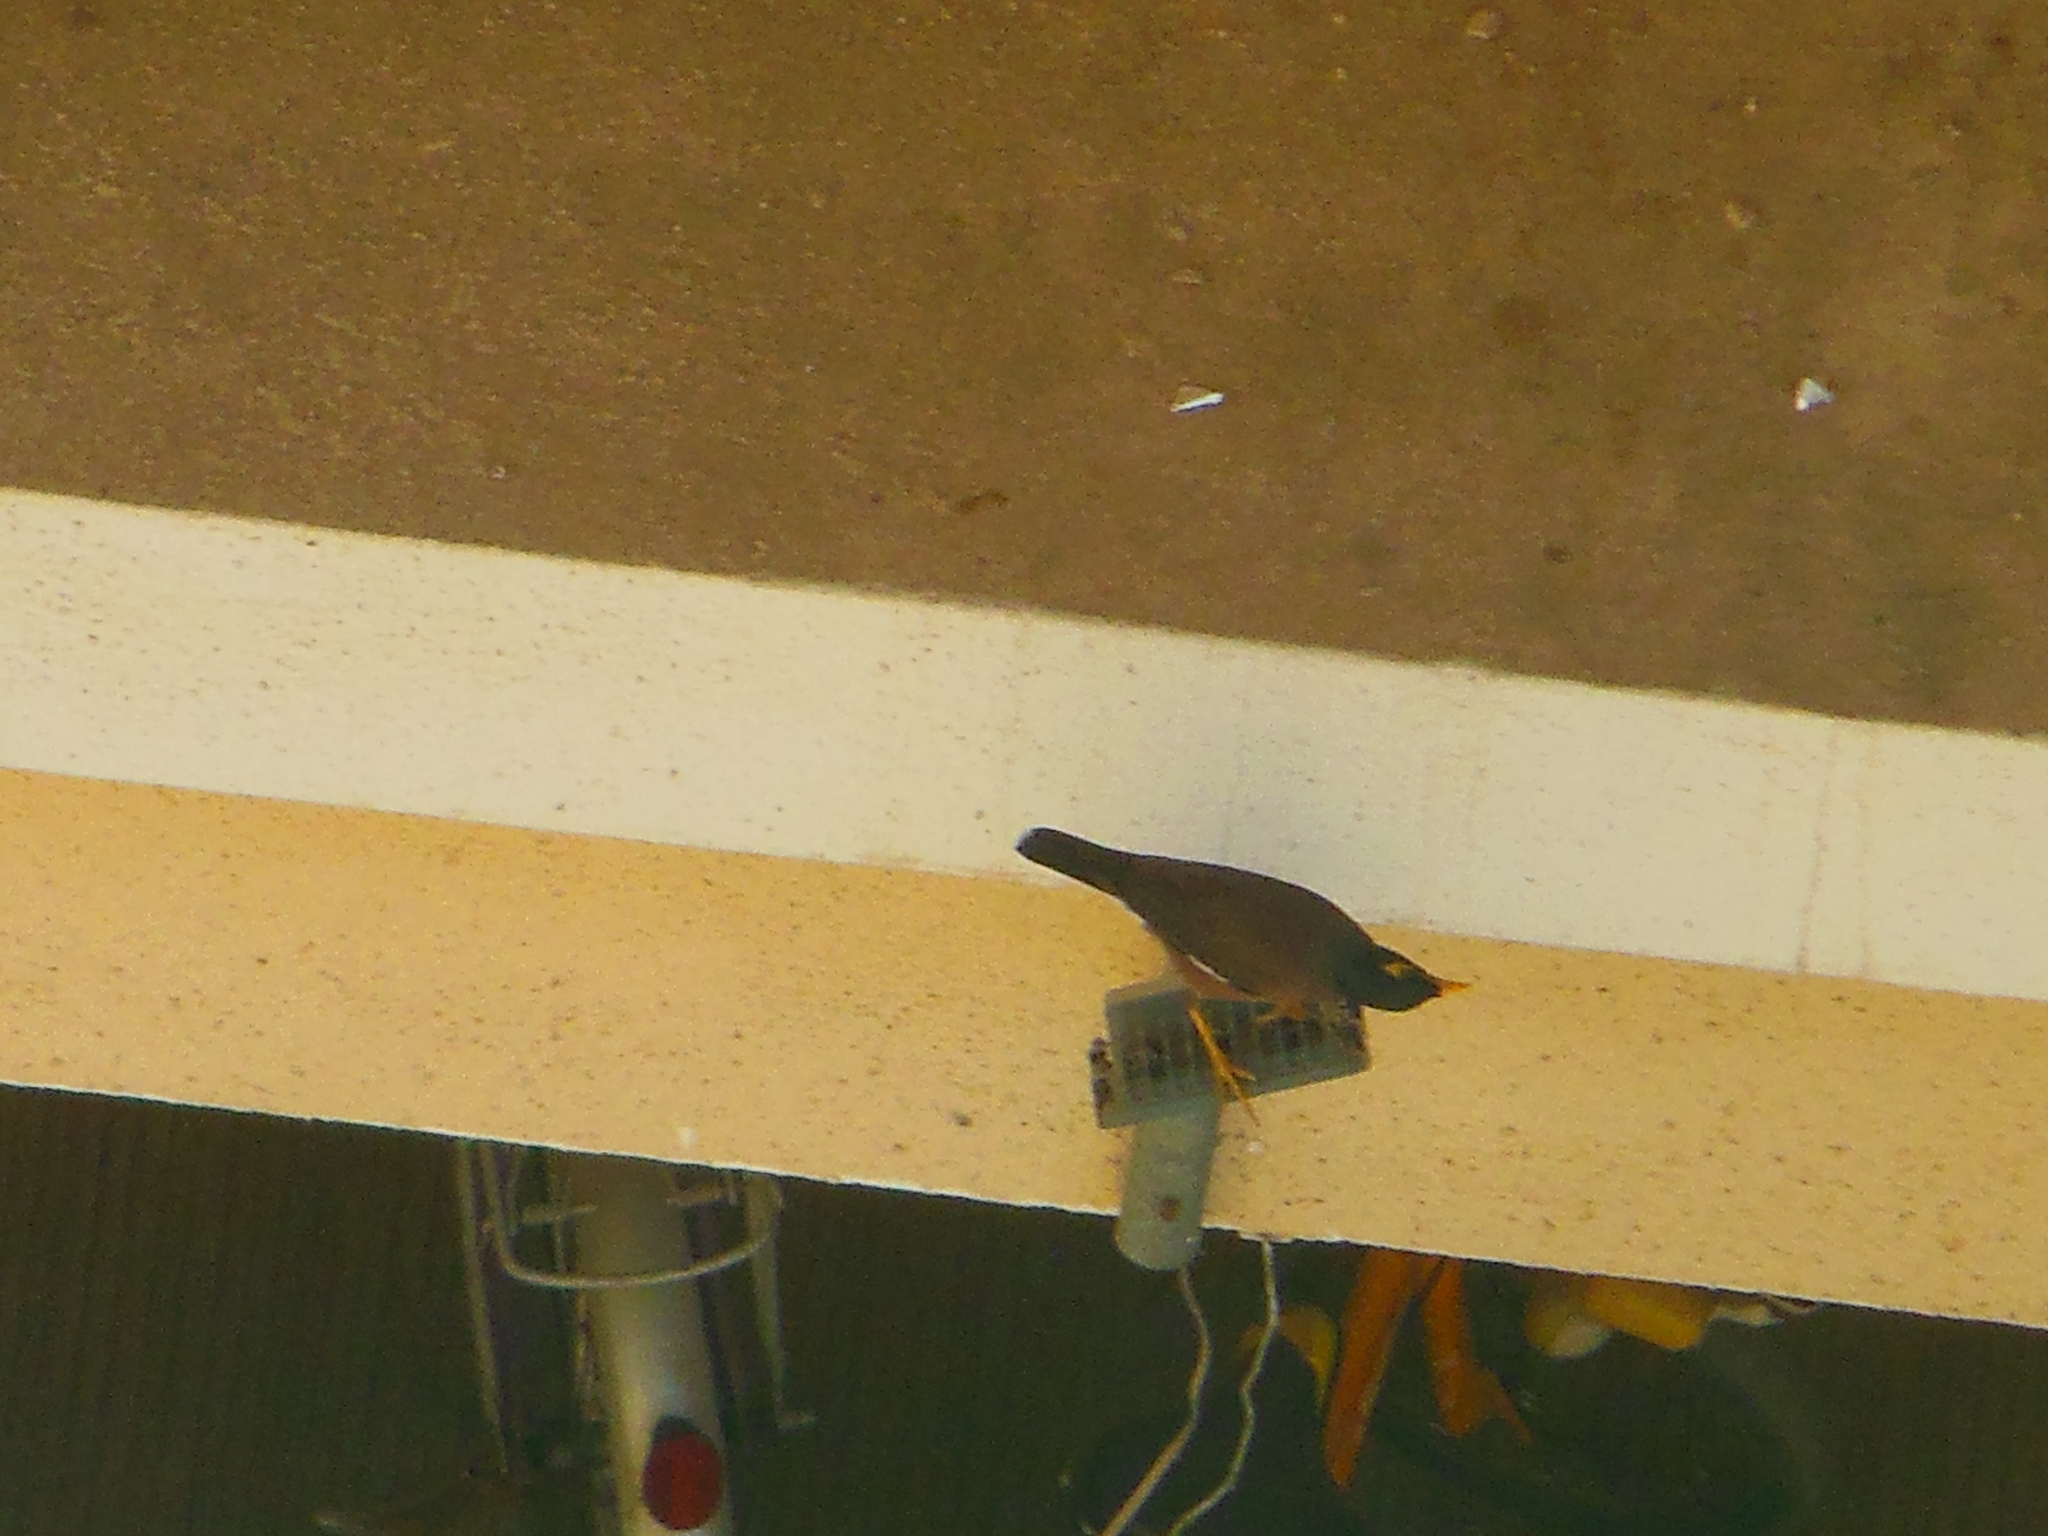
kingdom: Animalia
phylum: Chordata
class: Aves
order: Passeriformes
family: Sturnidae
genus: Acridotheres
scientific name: Acridotheres tristis
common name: Common myna
